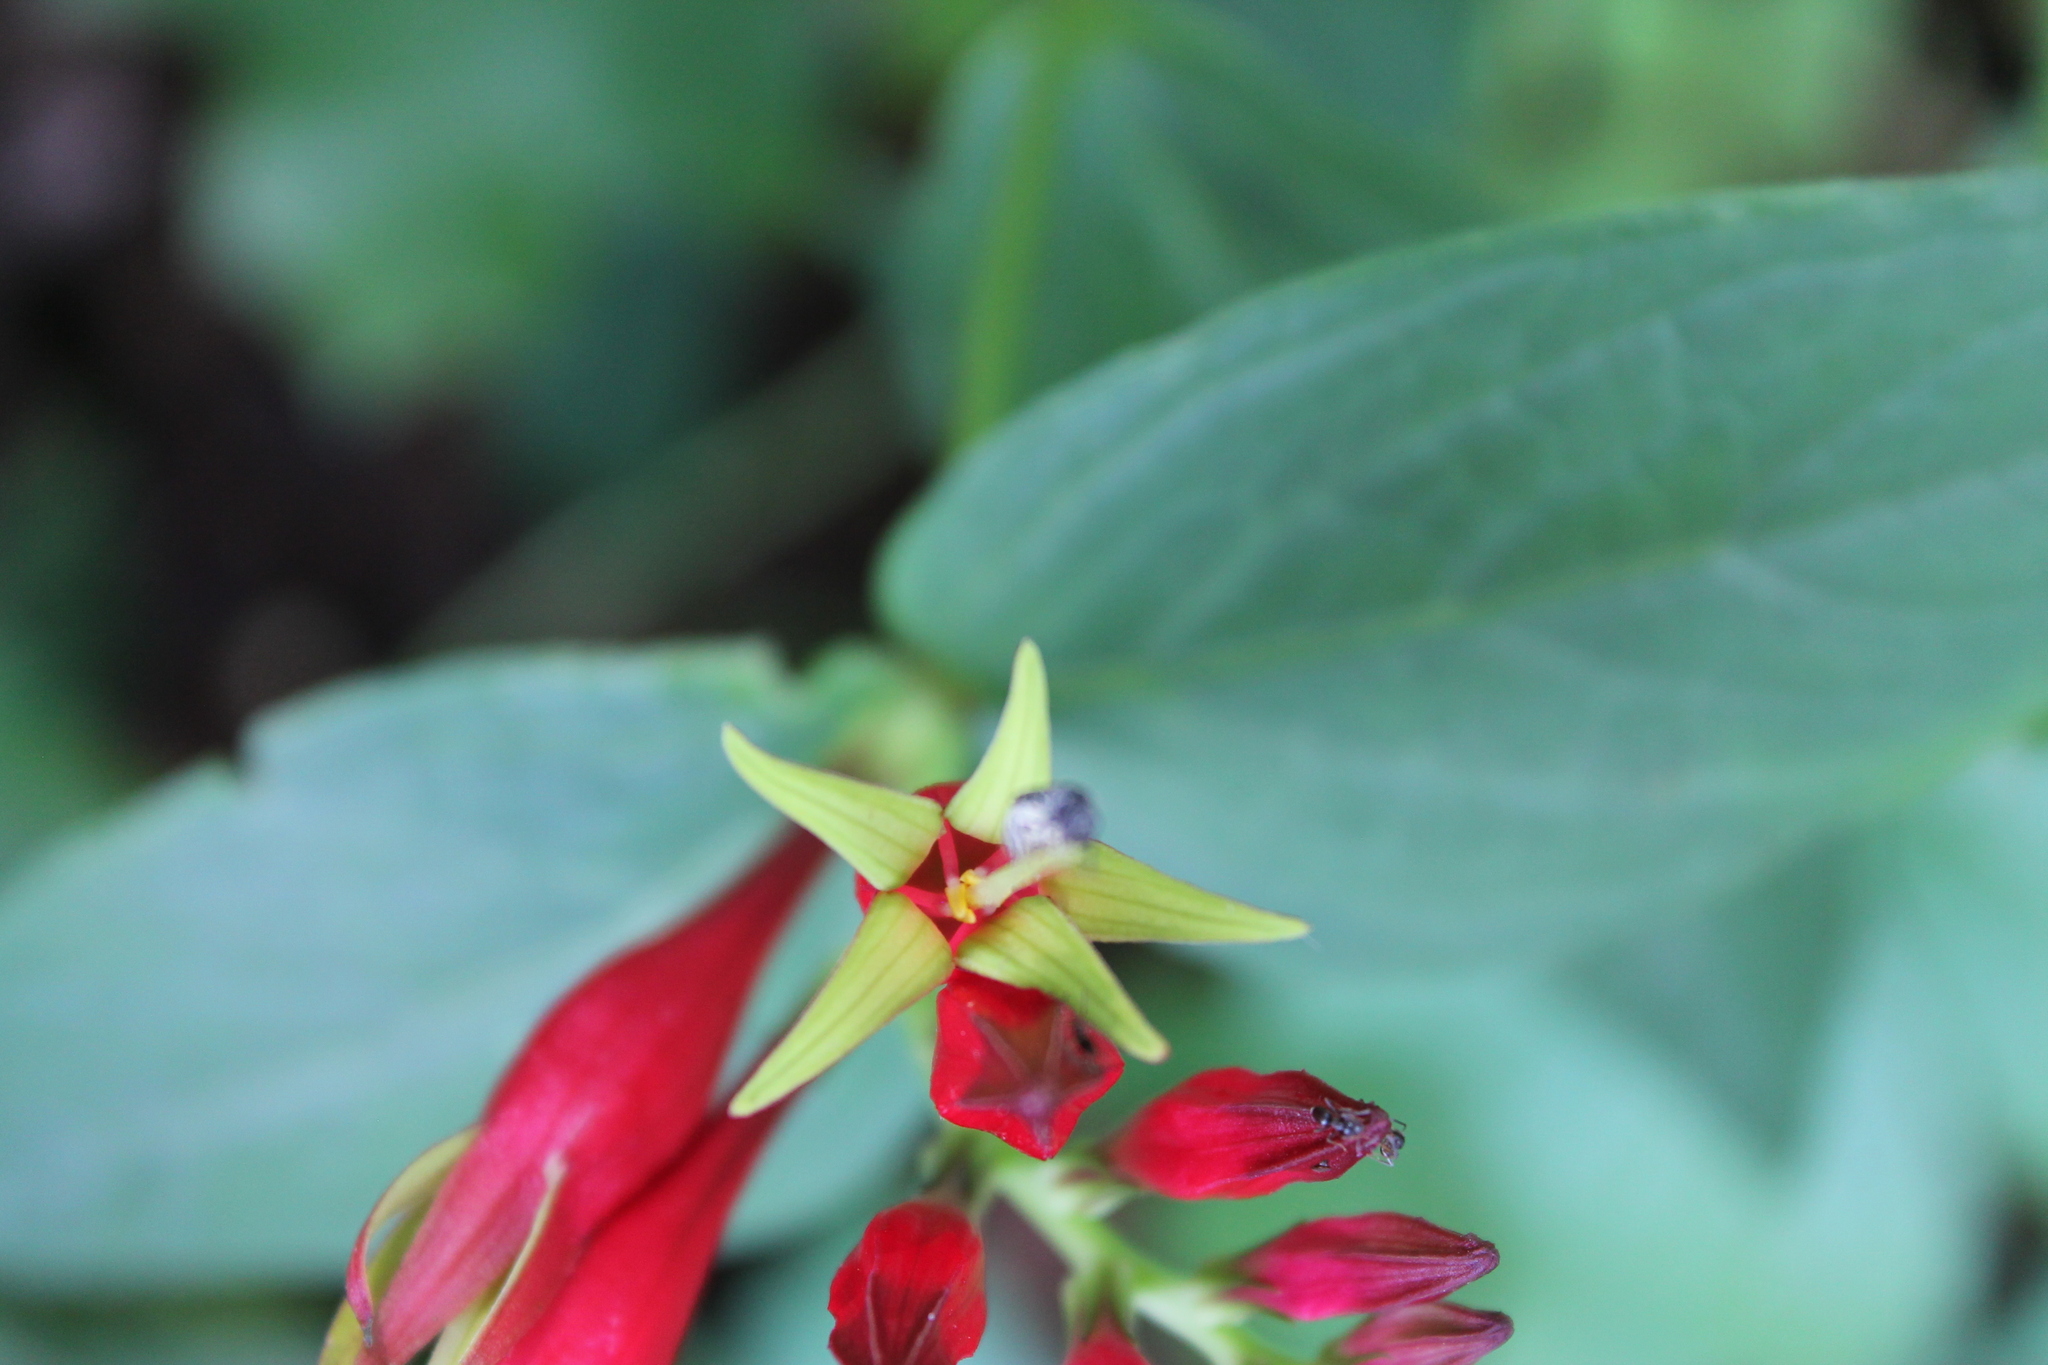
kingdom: Plantae
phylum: Tracheophyta
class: Magnoliopsida
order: Gentianales
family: Loganiaceae
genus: Spigelia
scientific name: Spigelia marilandica
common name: Indian-pink
